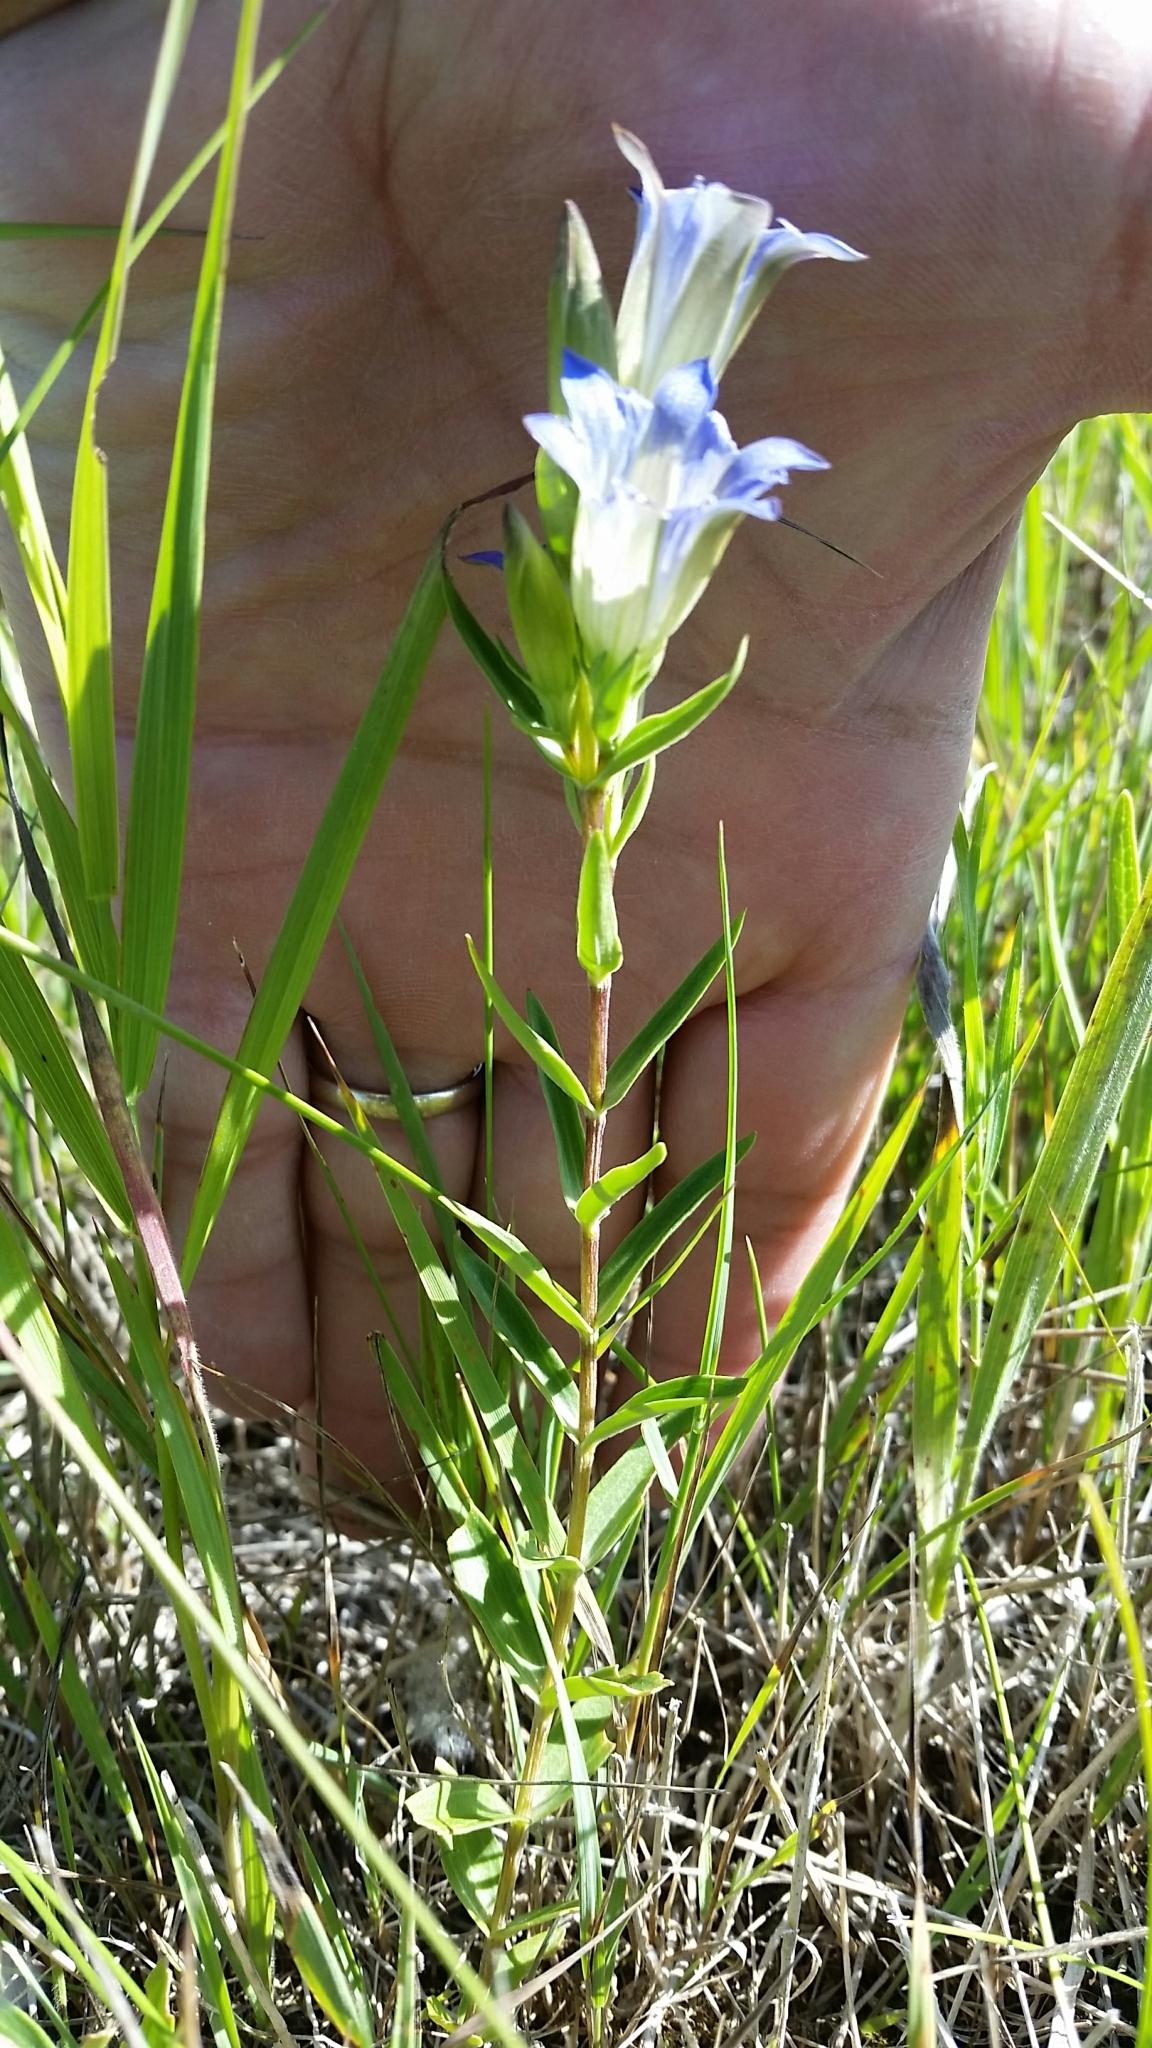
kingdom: Plantae
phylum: Tracheophyta
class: Magnoliopsida
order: Gentianales
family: Gentianaceae
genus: Gentiana
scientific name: Gentiana affinis
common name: Rocky mountain gentian
